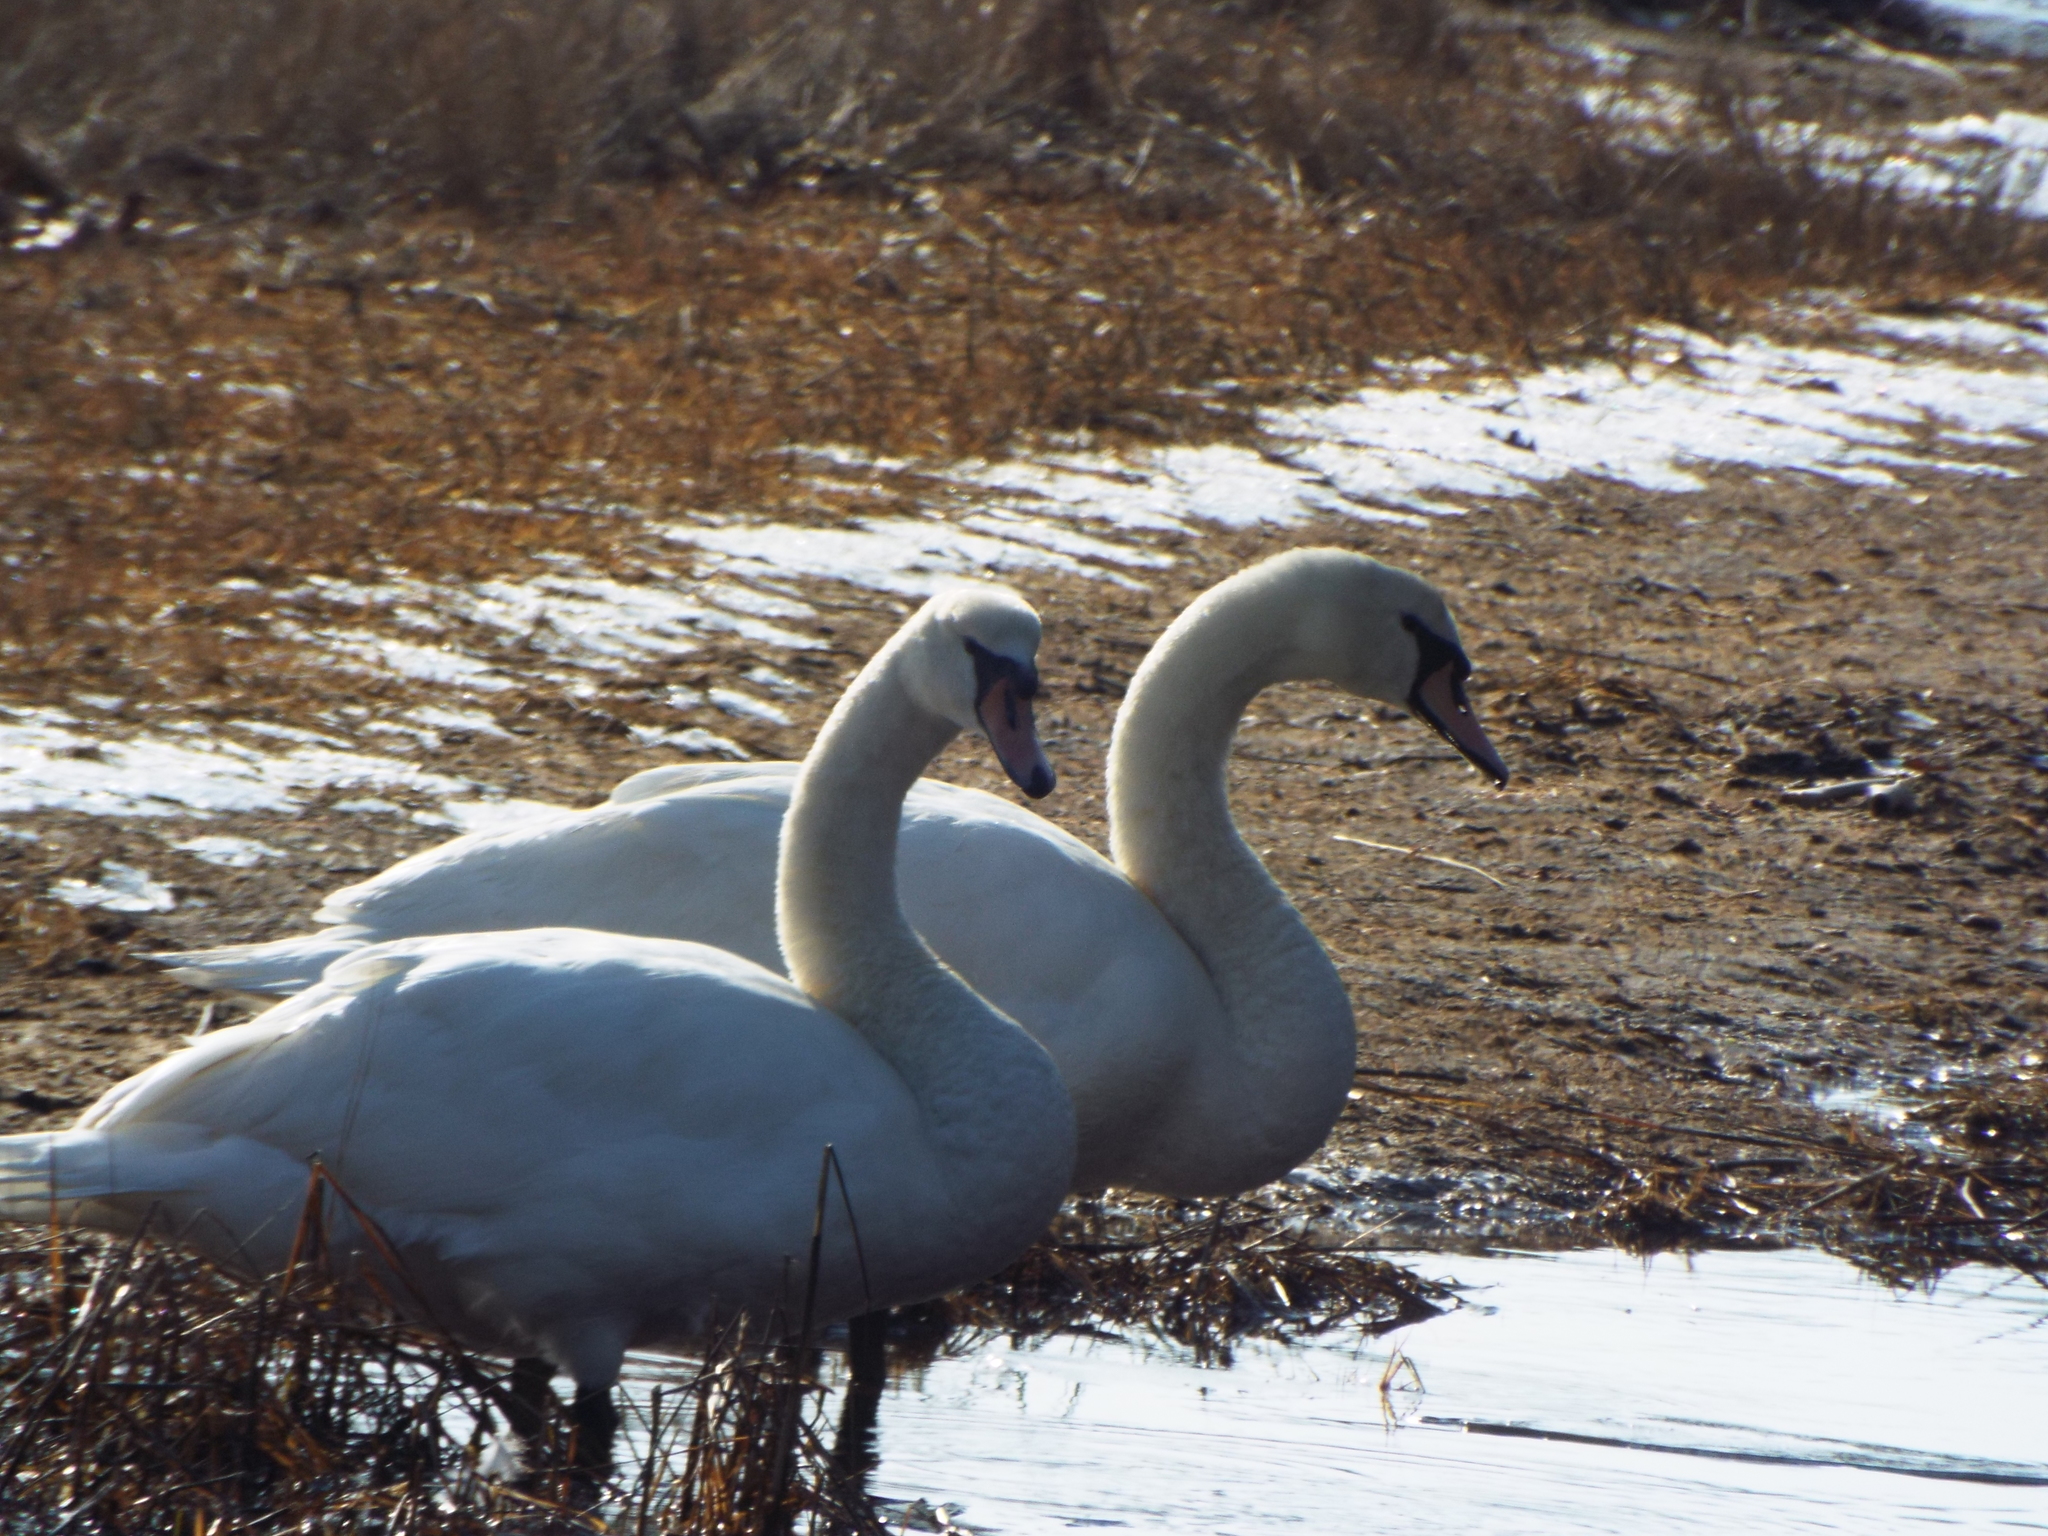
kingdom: Animalia
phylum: Chordata
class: Aves
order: Anseriformes
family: Anatidae
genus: Cygnus
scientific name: Cygnus olor
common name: Mute swan
